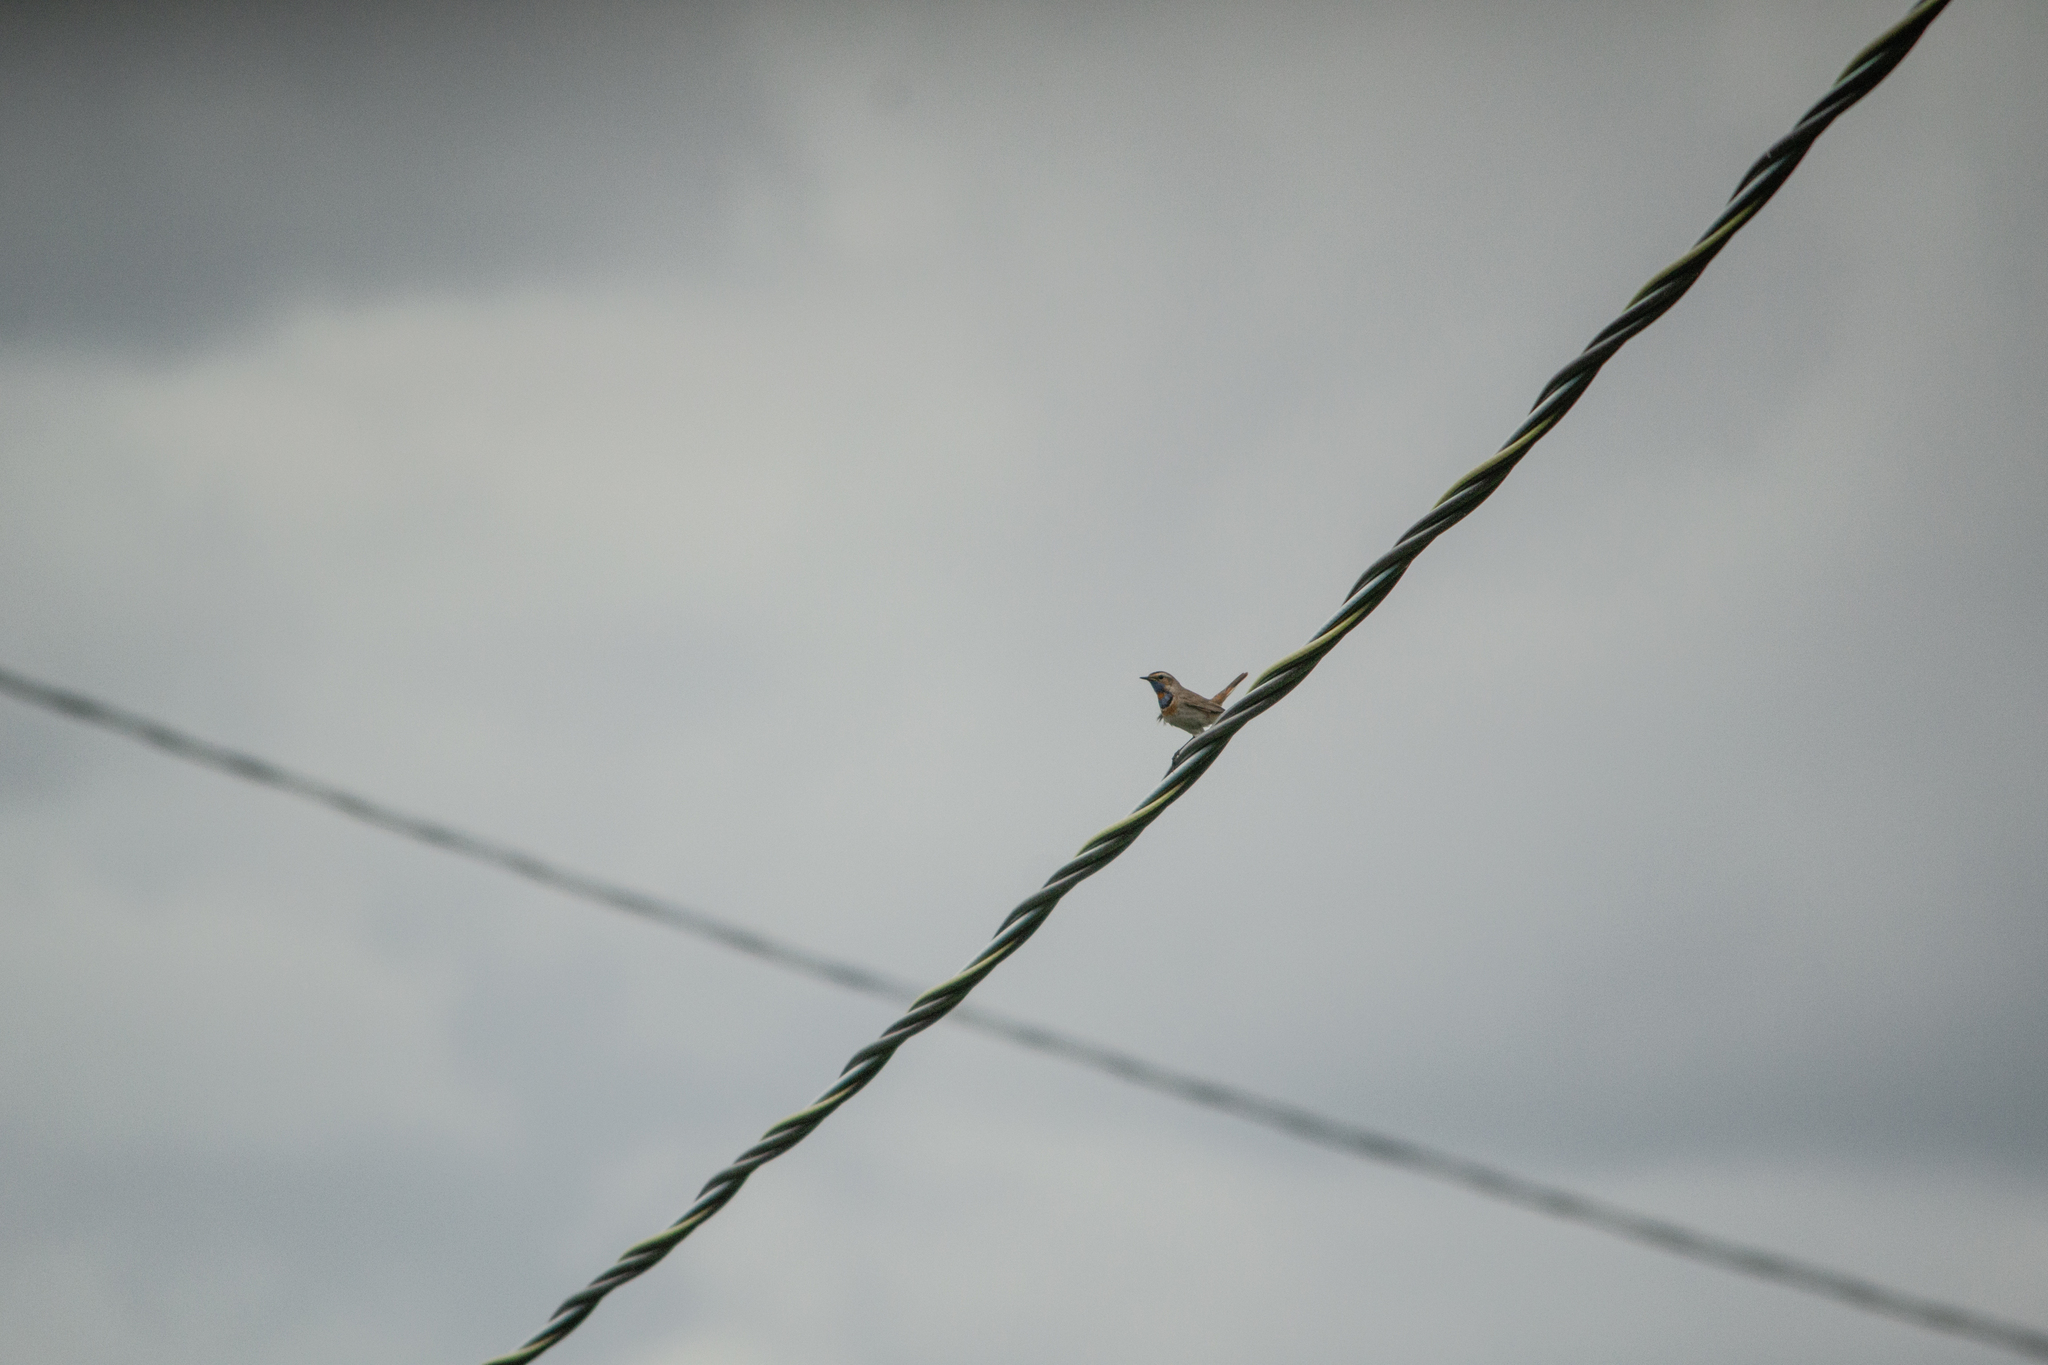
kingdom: Animalia
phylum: Chordata
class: Aves
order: Passeriformes
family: Muscicapidae
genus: Luscinia
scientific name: Luscinia svecica
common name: Bluethroat
